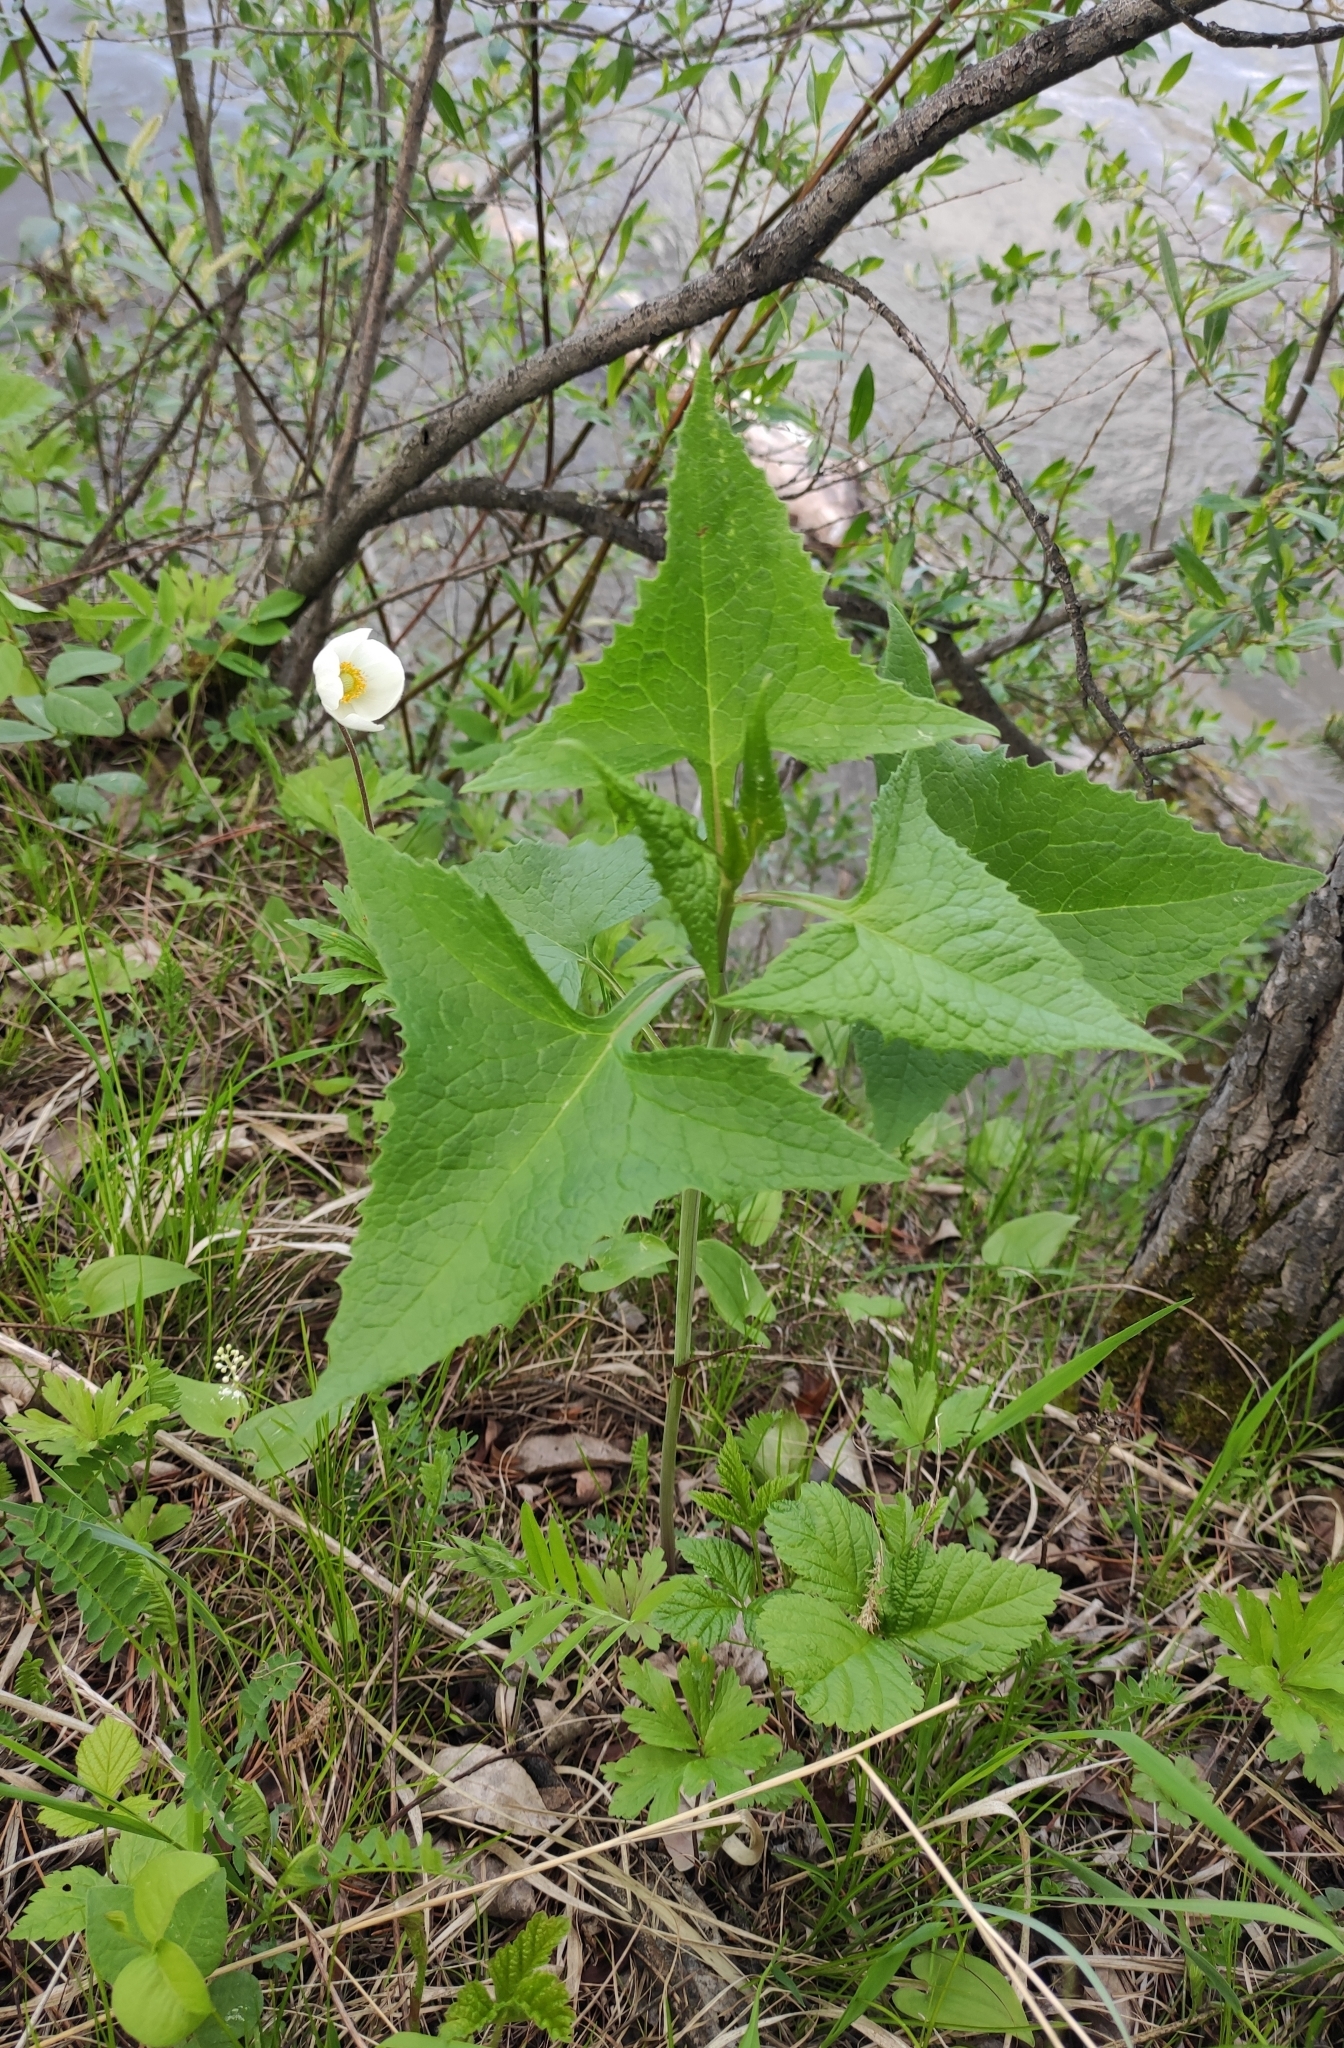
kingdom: Plantae
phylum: Tracheophyta
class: Magnoliopsida
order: Asterales
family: Asteraceae
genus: Parasenecio
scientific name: Parasenecio hastatus
